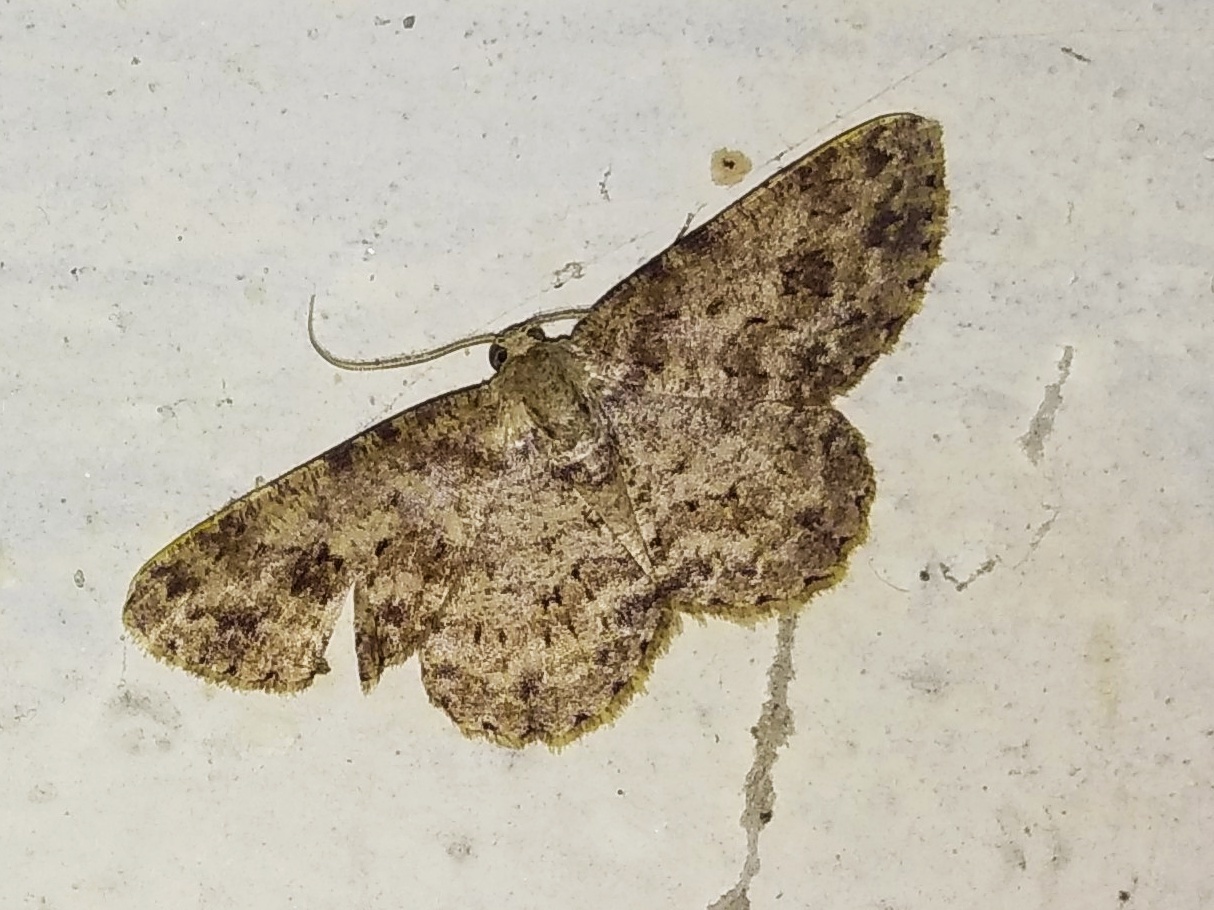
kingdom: Animalia
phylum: Arthropoda
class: Insecta
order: Lepidoptera
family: Geometridae
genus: Ectropis
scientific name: Ectropis bhurmitra
